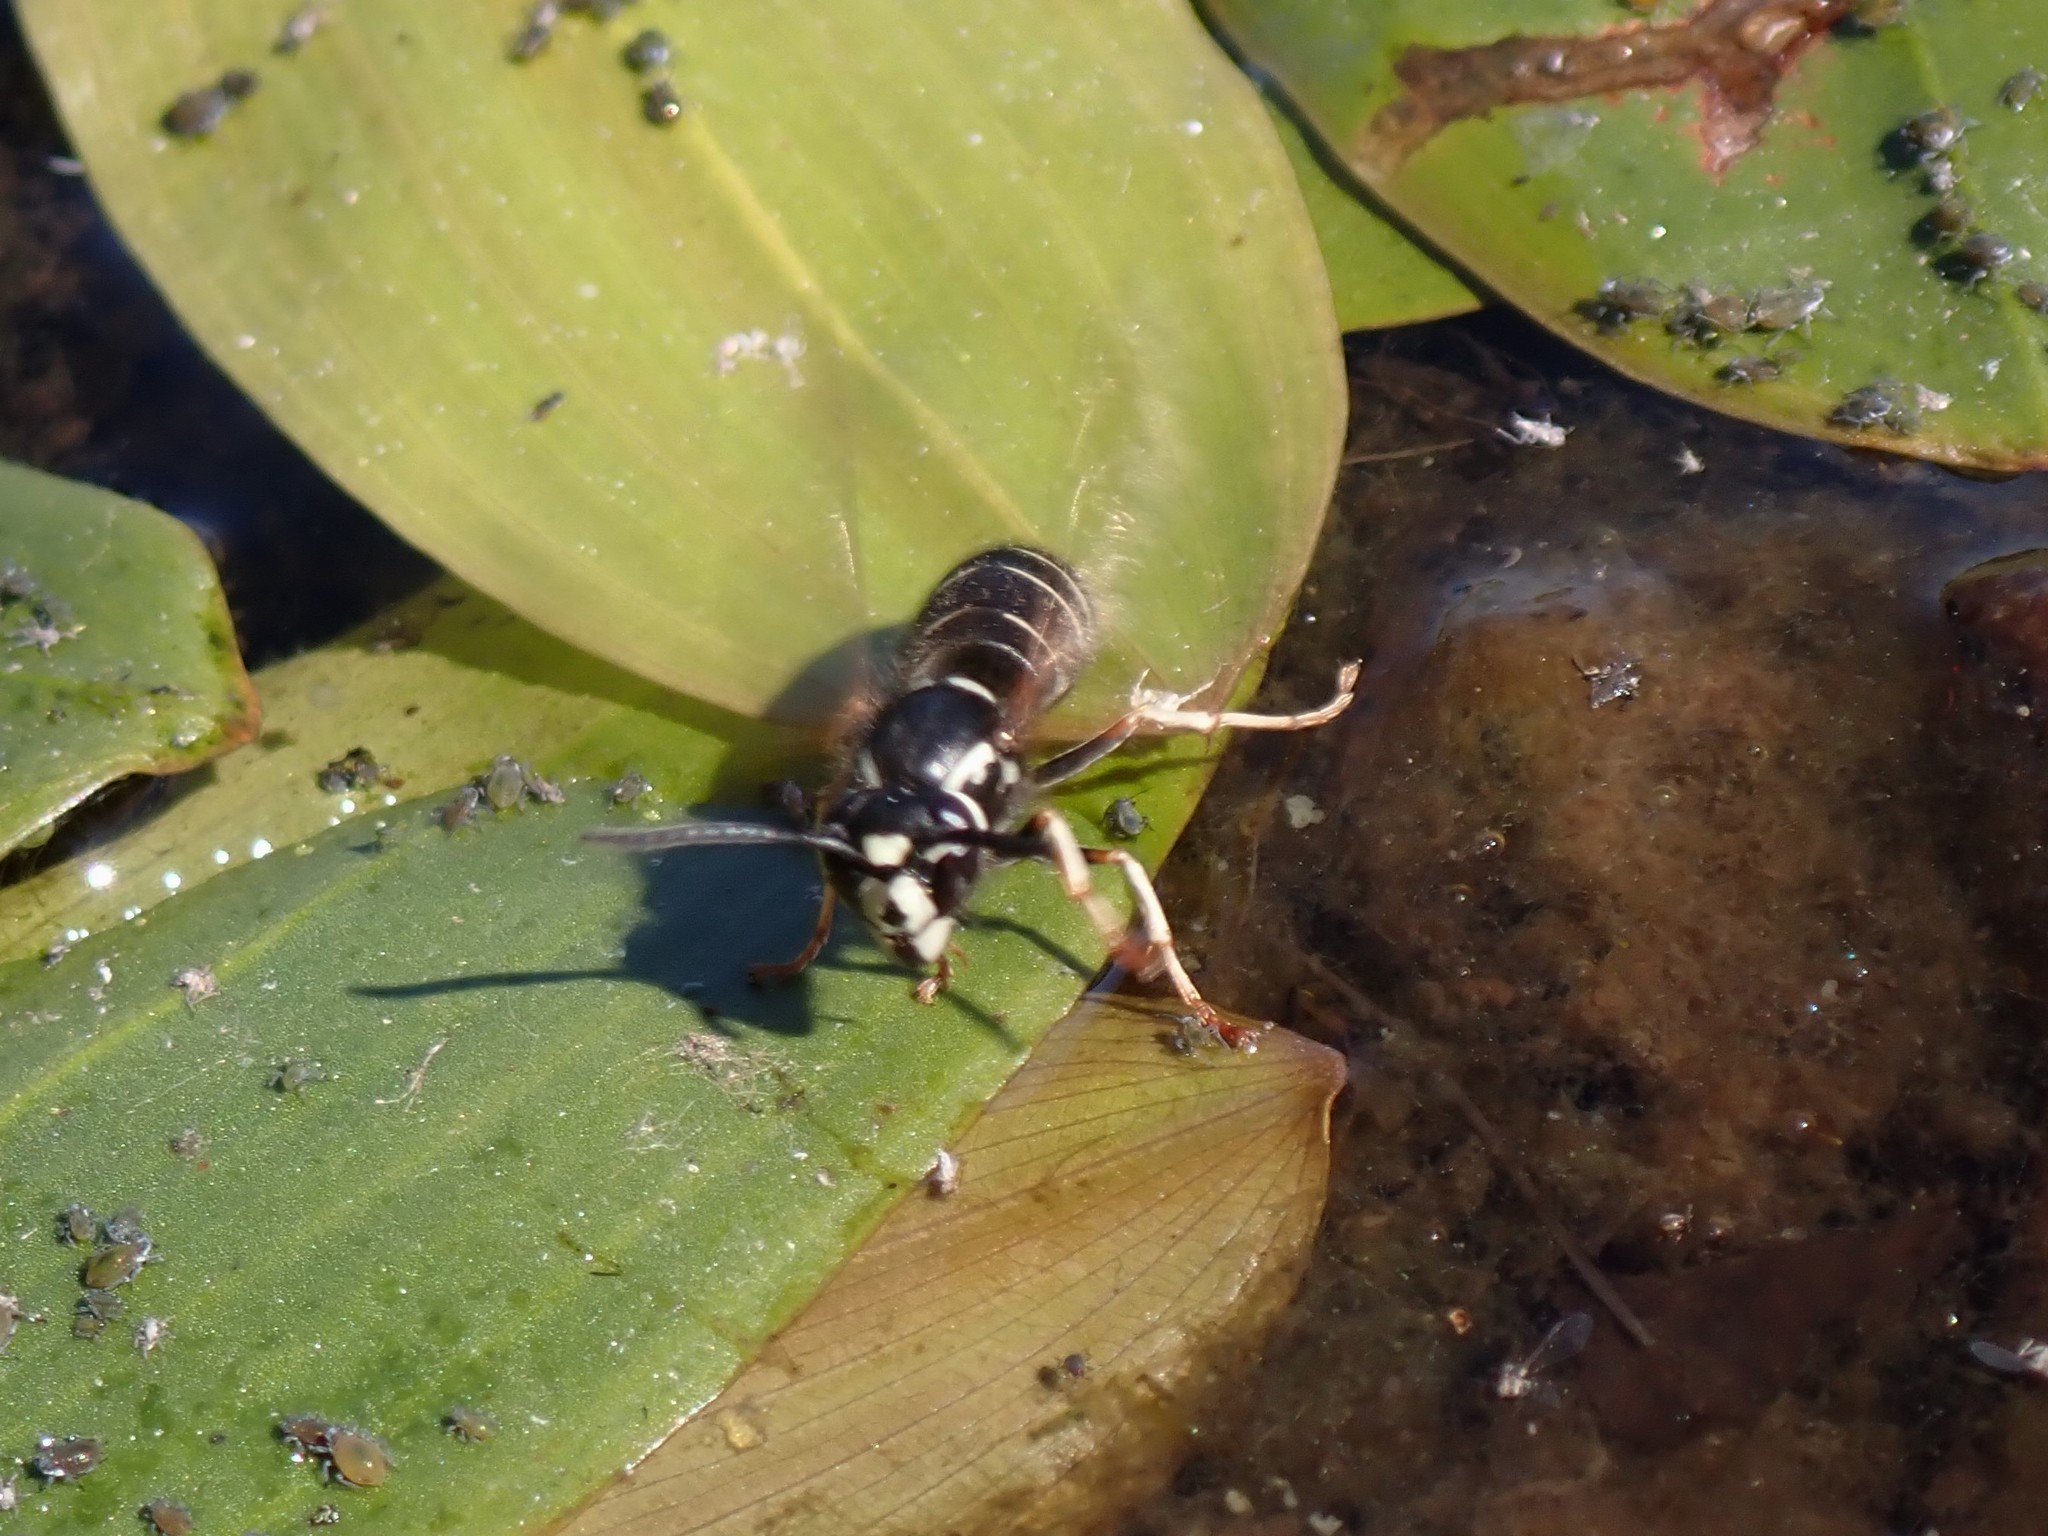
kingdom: Animalia
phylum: Arthropoda
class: Insecta
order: Hymenoptera
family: Vespidae
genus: Vespula
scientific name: Vespula consobrina
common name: Blackjacket
